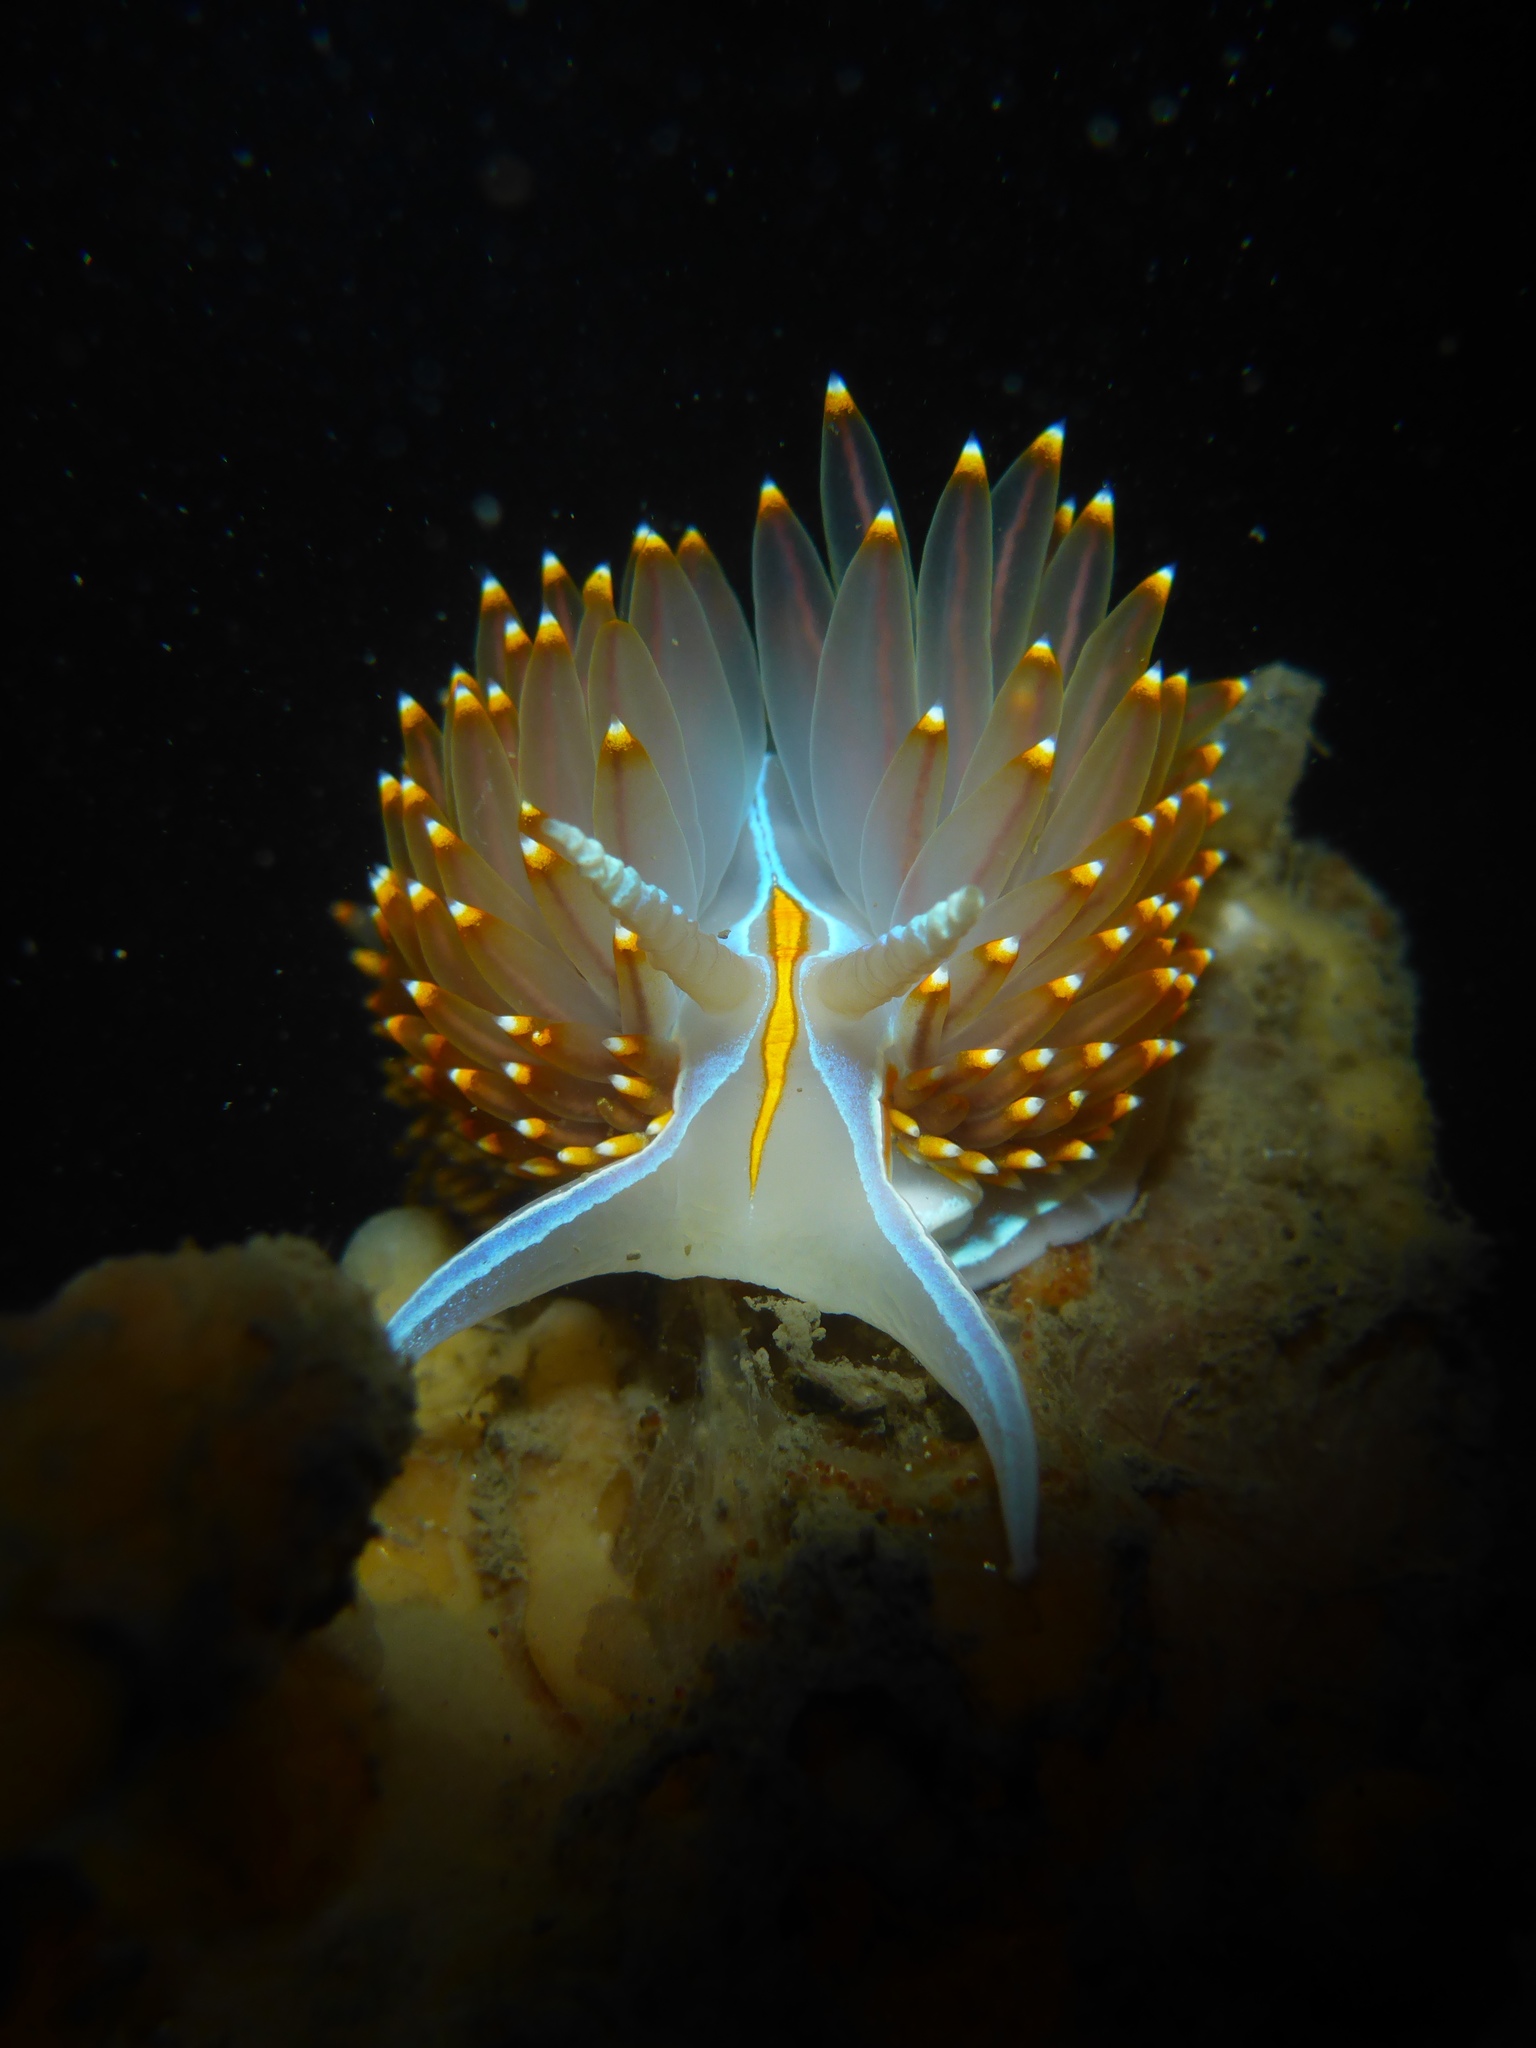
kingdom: Animalia
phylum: Mollusca
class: Gastropoda
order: Nudibranchia
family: Myrrhinidae
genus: Hermissenda
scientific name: Hermissenda opalescens
